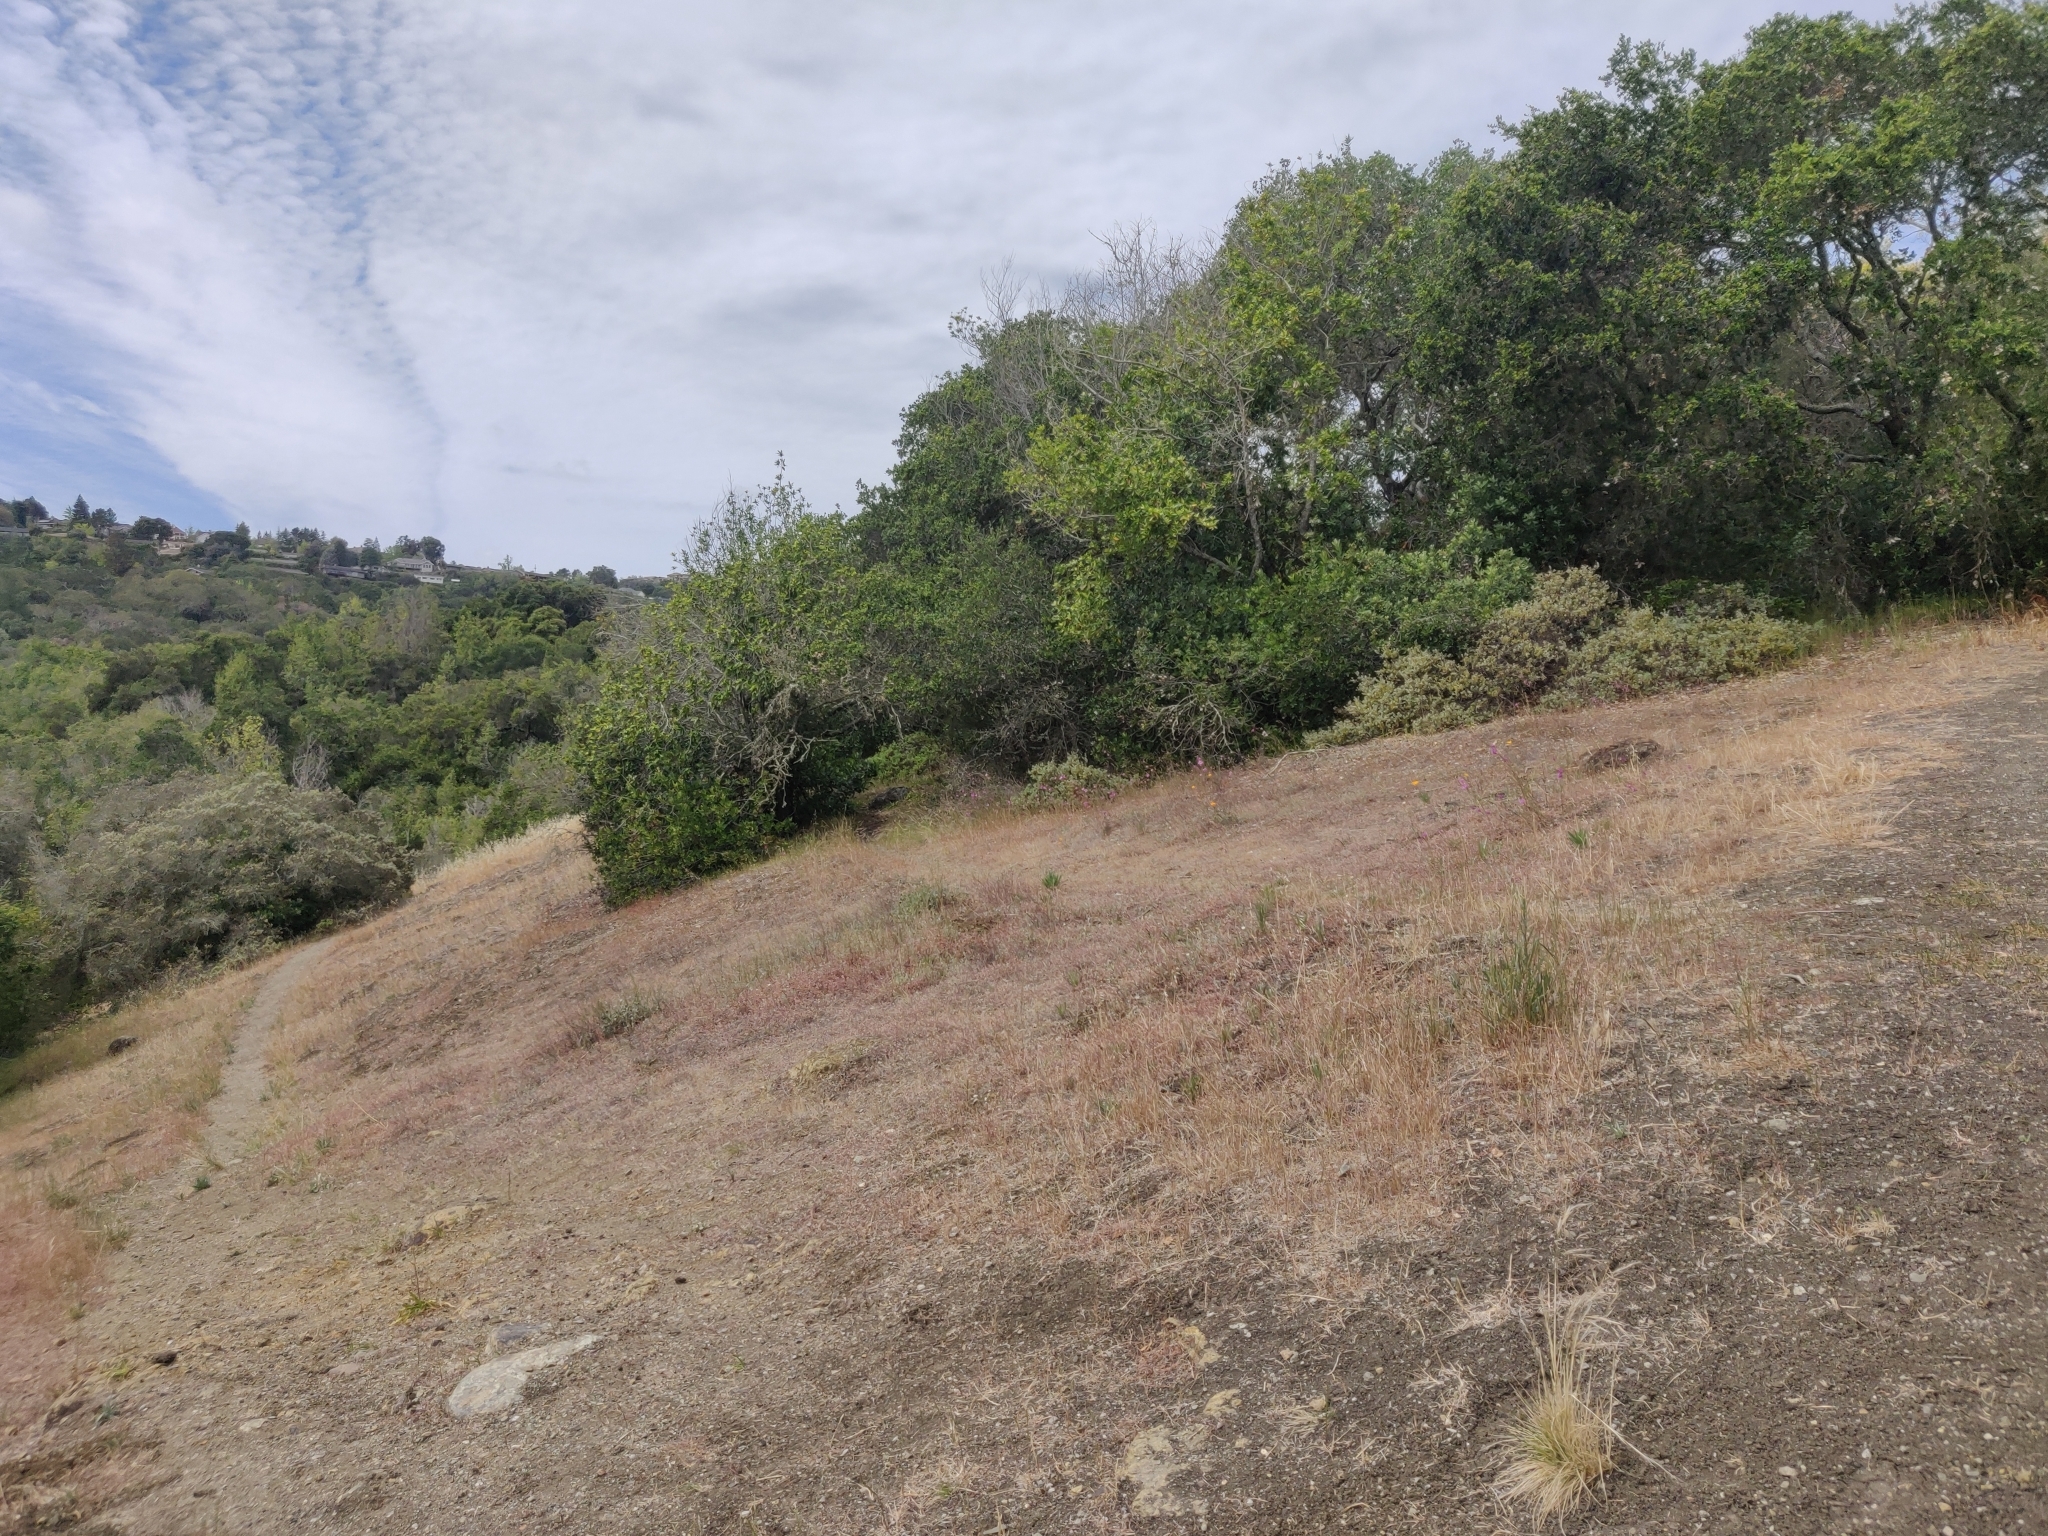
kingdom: Plantae
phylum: Tracheophyta
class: Magnoliopsida
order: Asterales
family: Asteraceae
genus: Madia
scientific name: Madia elegans
